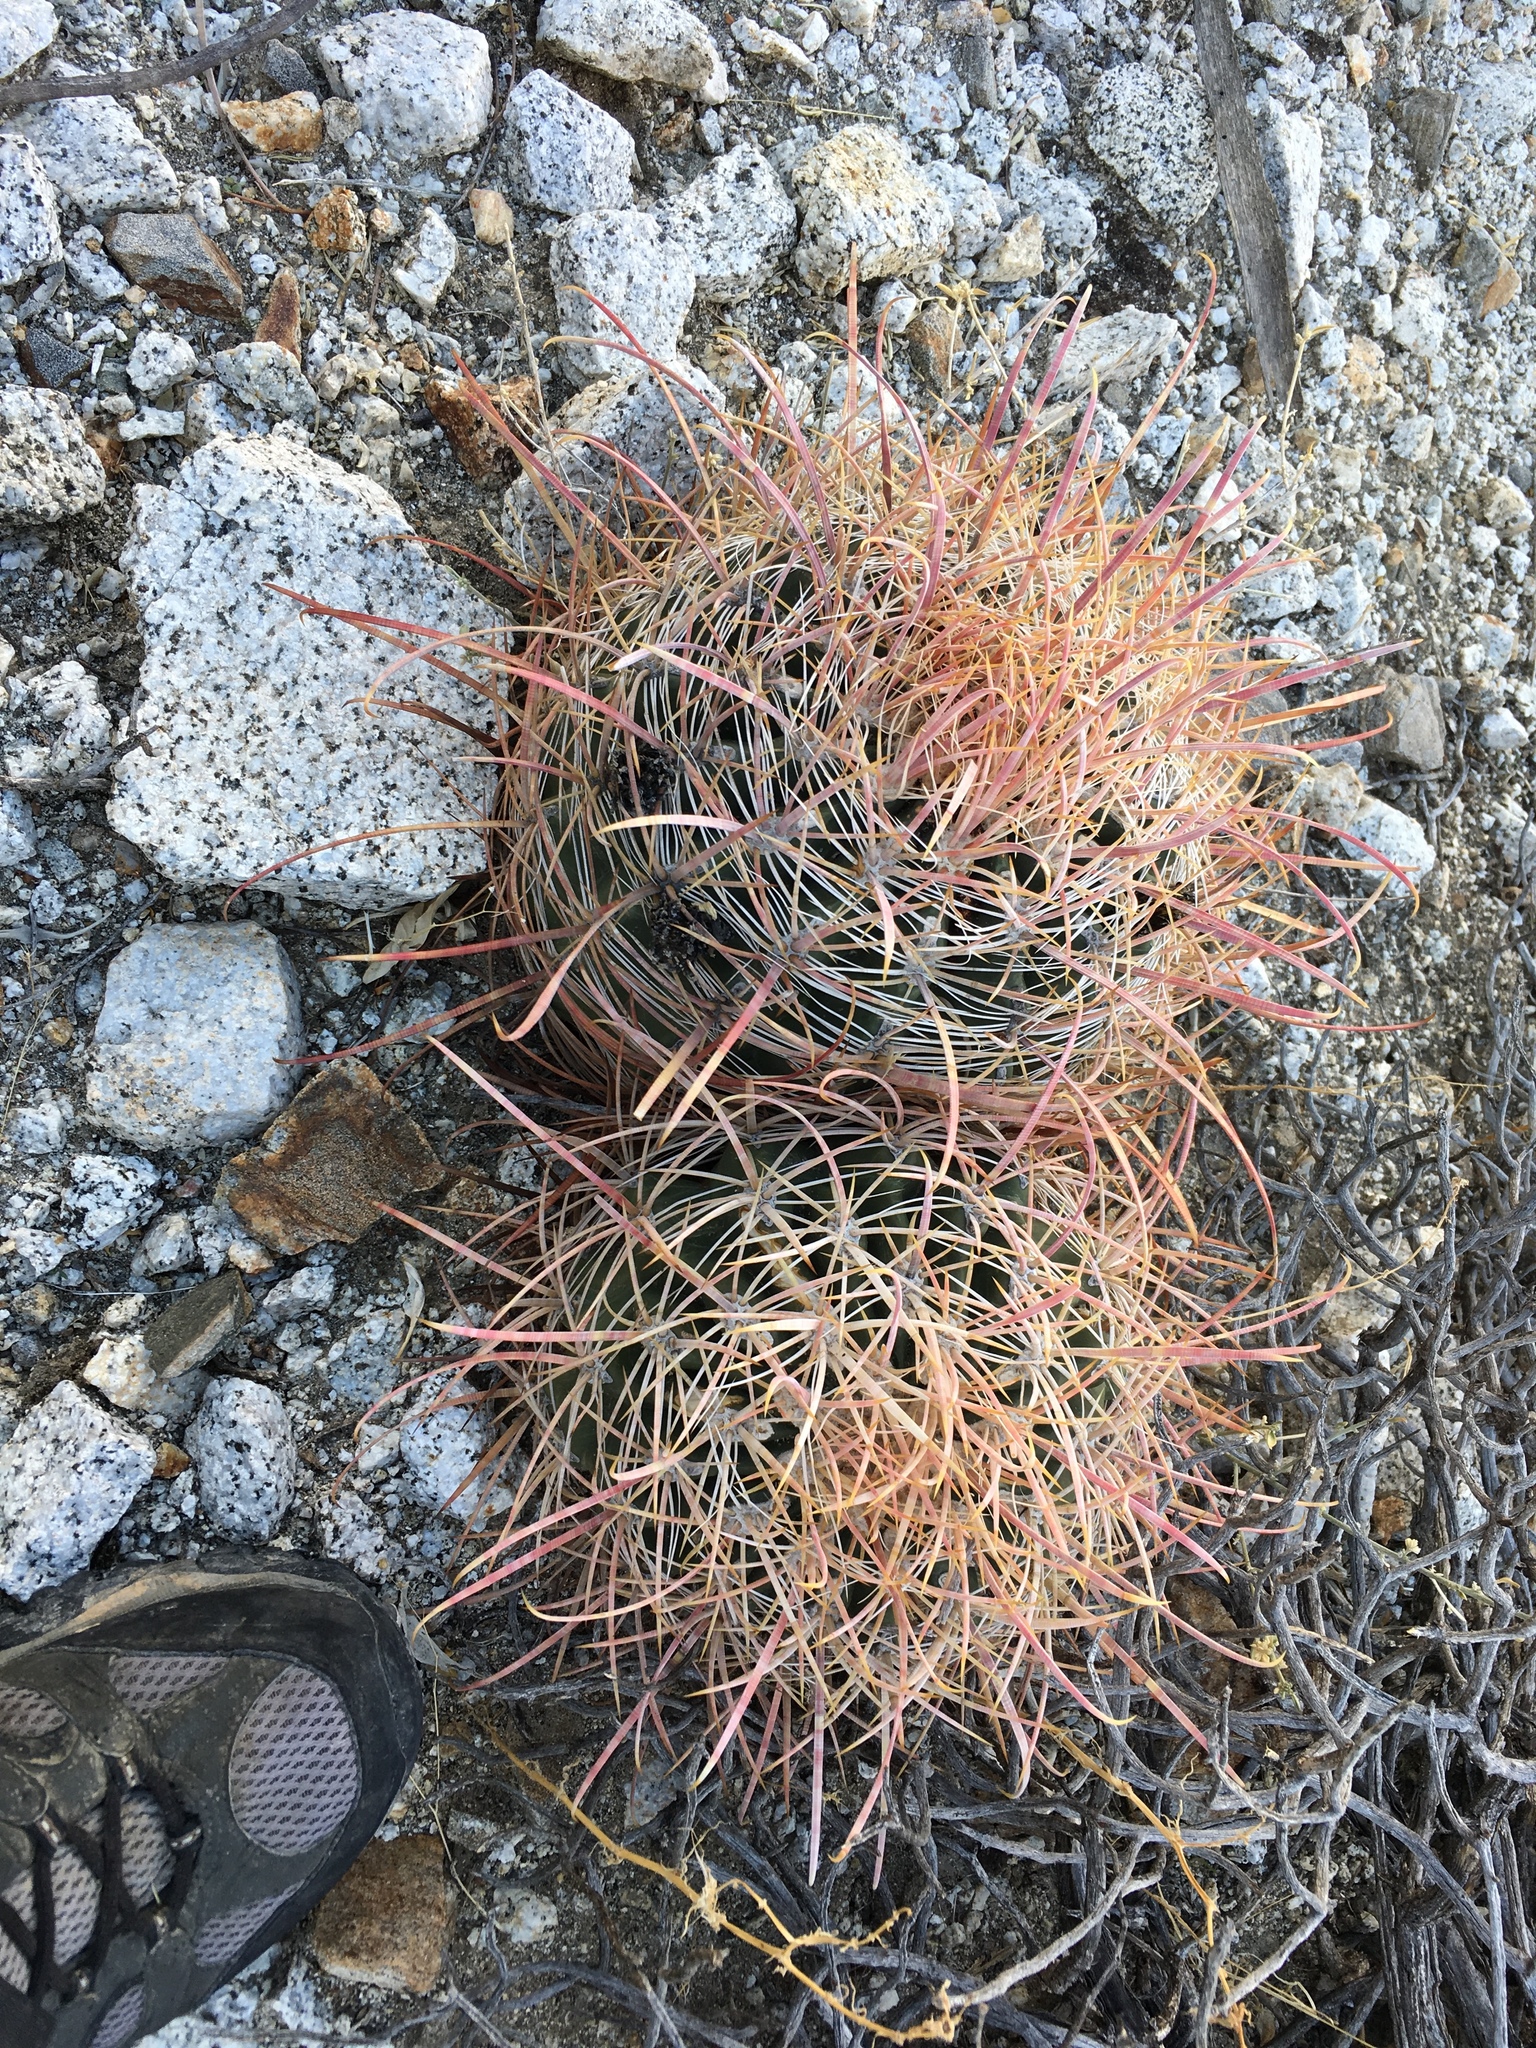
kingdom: Plantae
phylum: Tracheophyta
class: Magnoliopsida
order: Caryophyllales
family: Cactaceae
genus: Ferocactus
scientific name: Ferocactus cylindraceus
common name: California barrel cactus
